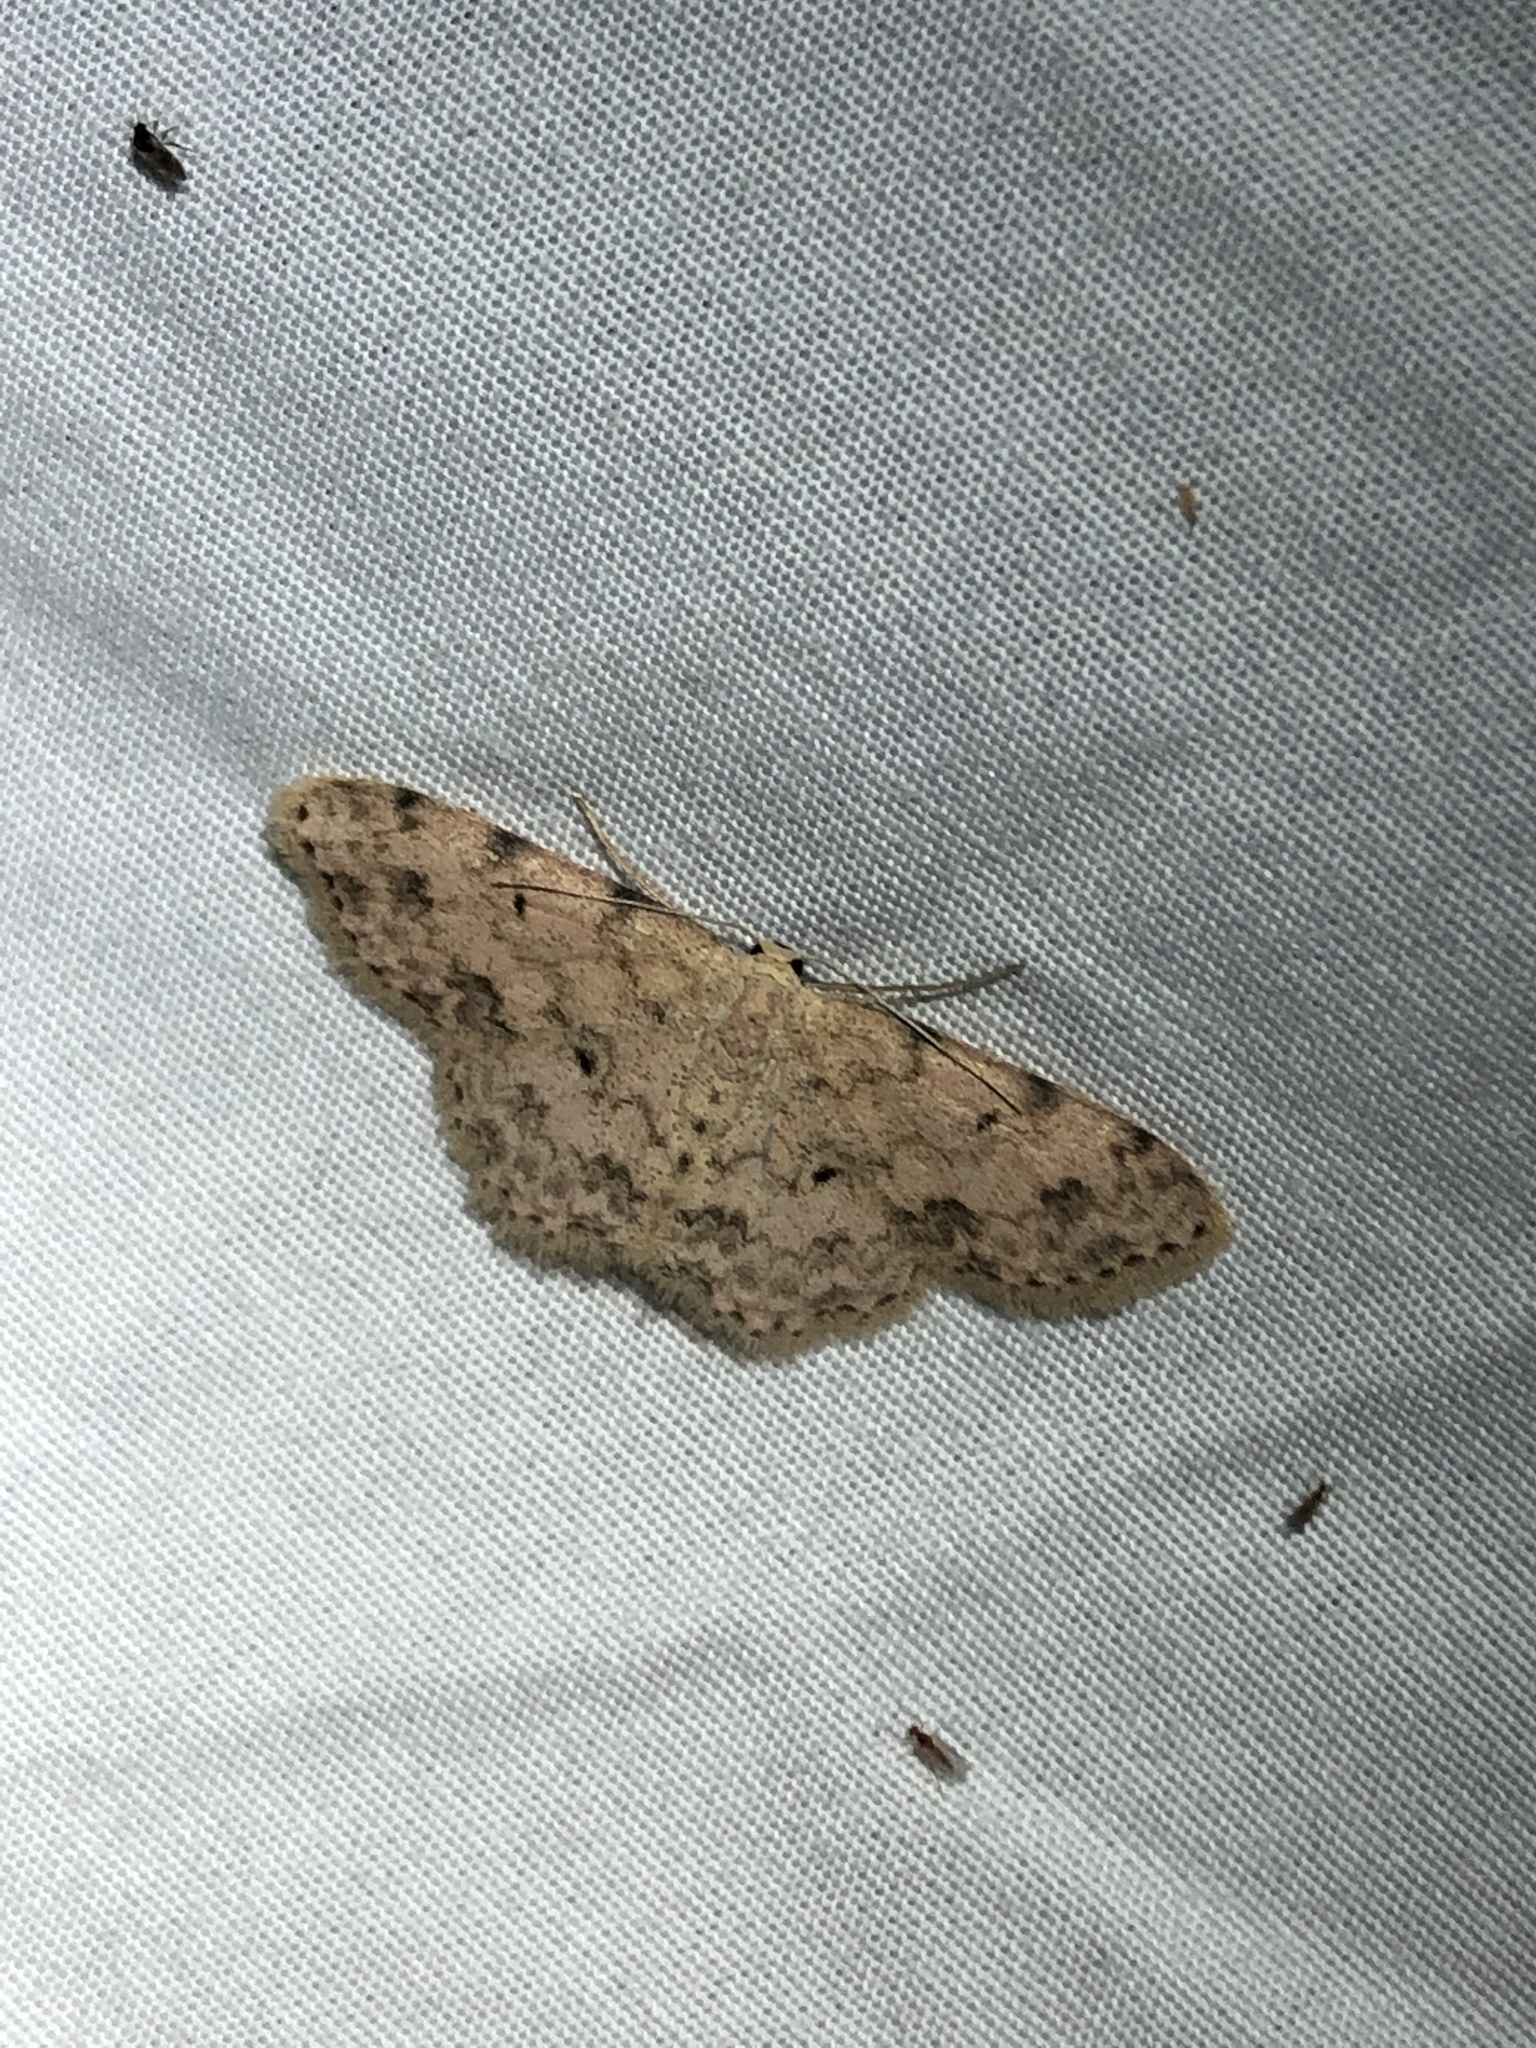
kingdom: Animalia
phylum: Arthropoda
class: Insecta
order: Lepidoptera
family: Geometridae
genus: Scopula
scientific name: Scopula plantagenaria
